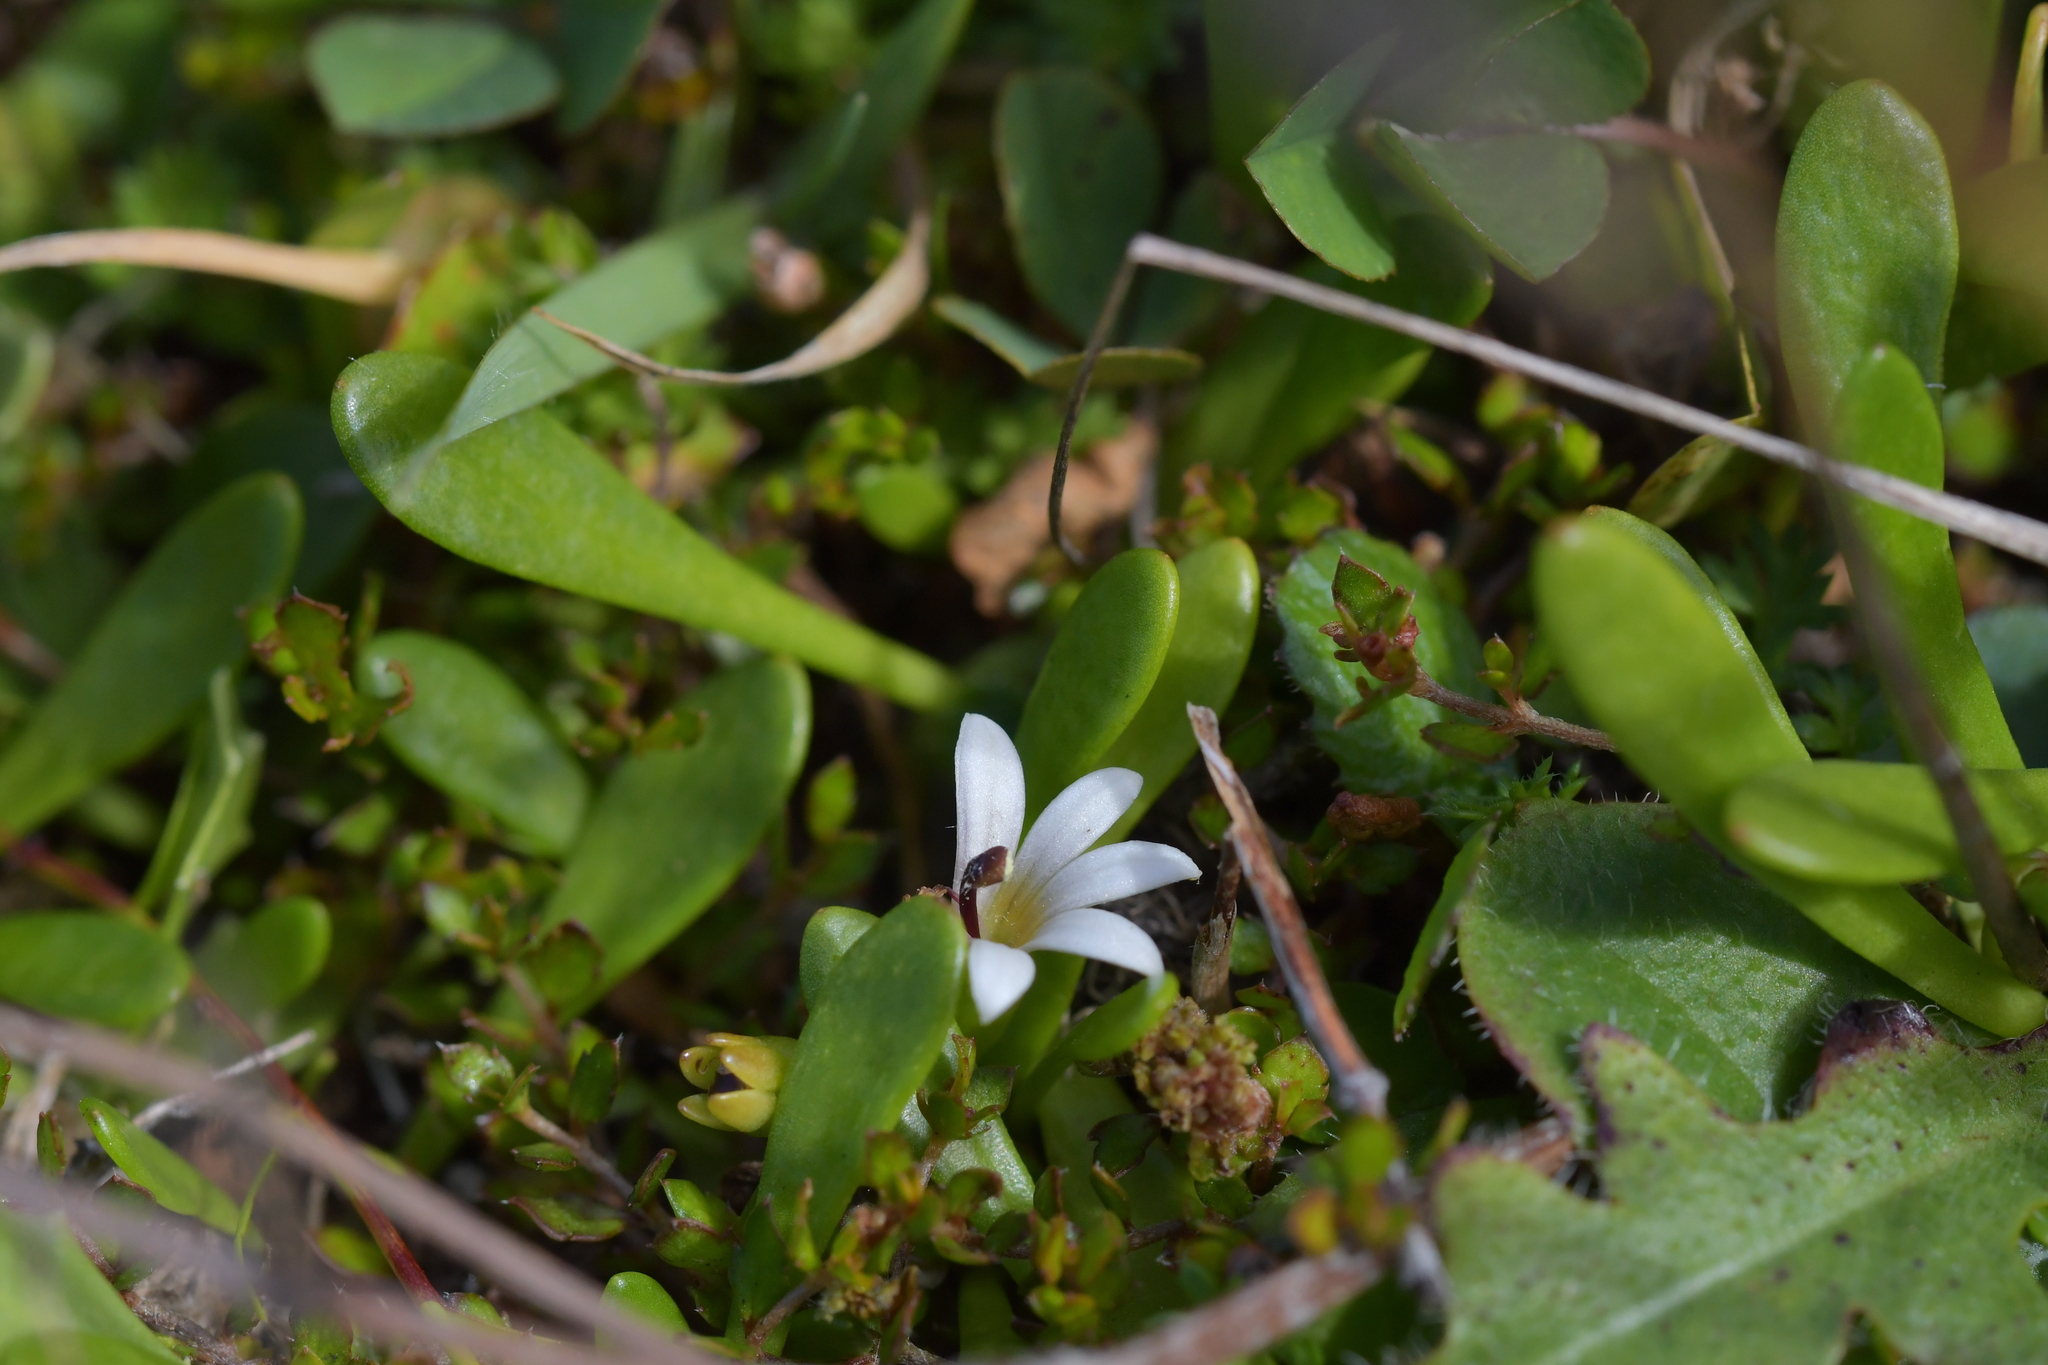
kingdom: Plantae
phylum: Tracheophyta
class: Magnoliopsida
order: Asterales
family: Goodeniaceae
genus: Goodenia
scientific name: Goodenia radicans
